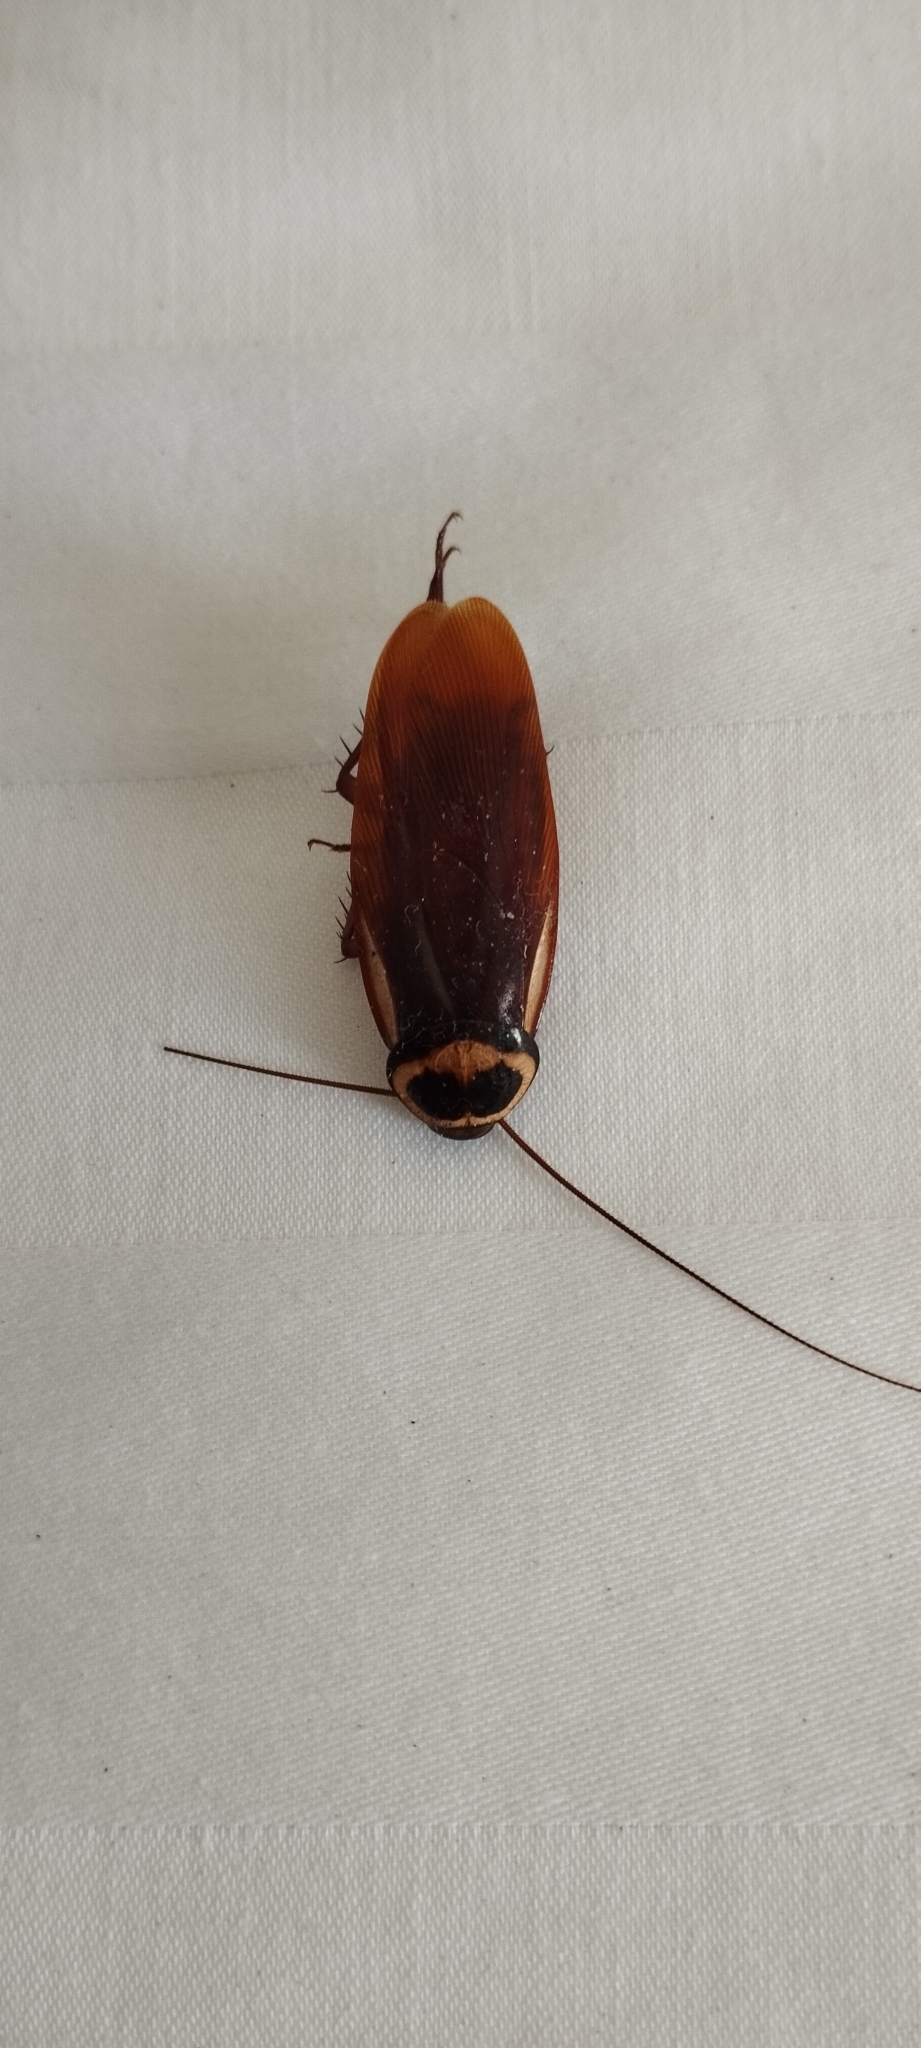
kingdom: Animalia
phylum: Arthropoda
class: Insecta
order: Blattodea
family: Blattidae
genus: Periplaneta
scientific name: Periplaneta australasiae
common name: Australian cockroach
